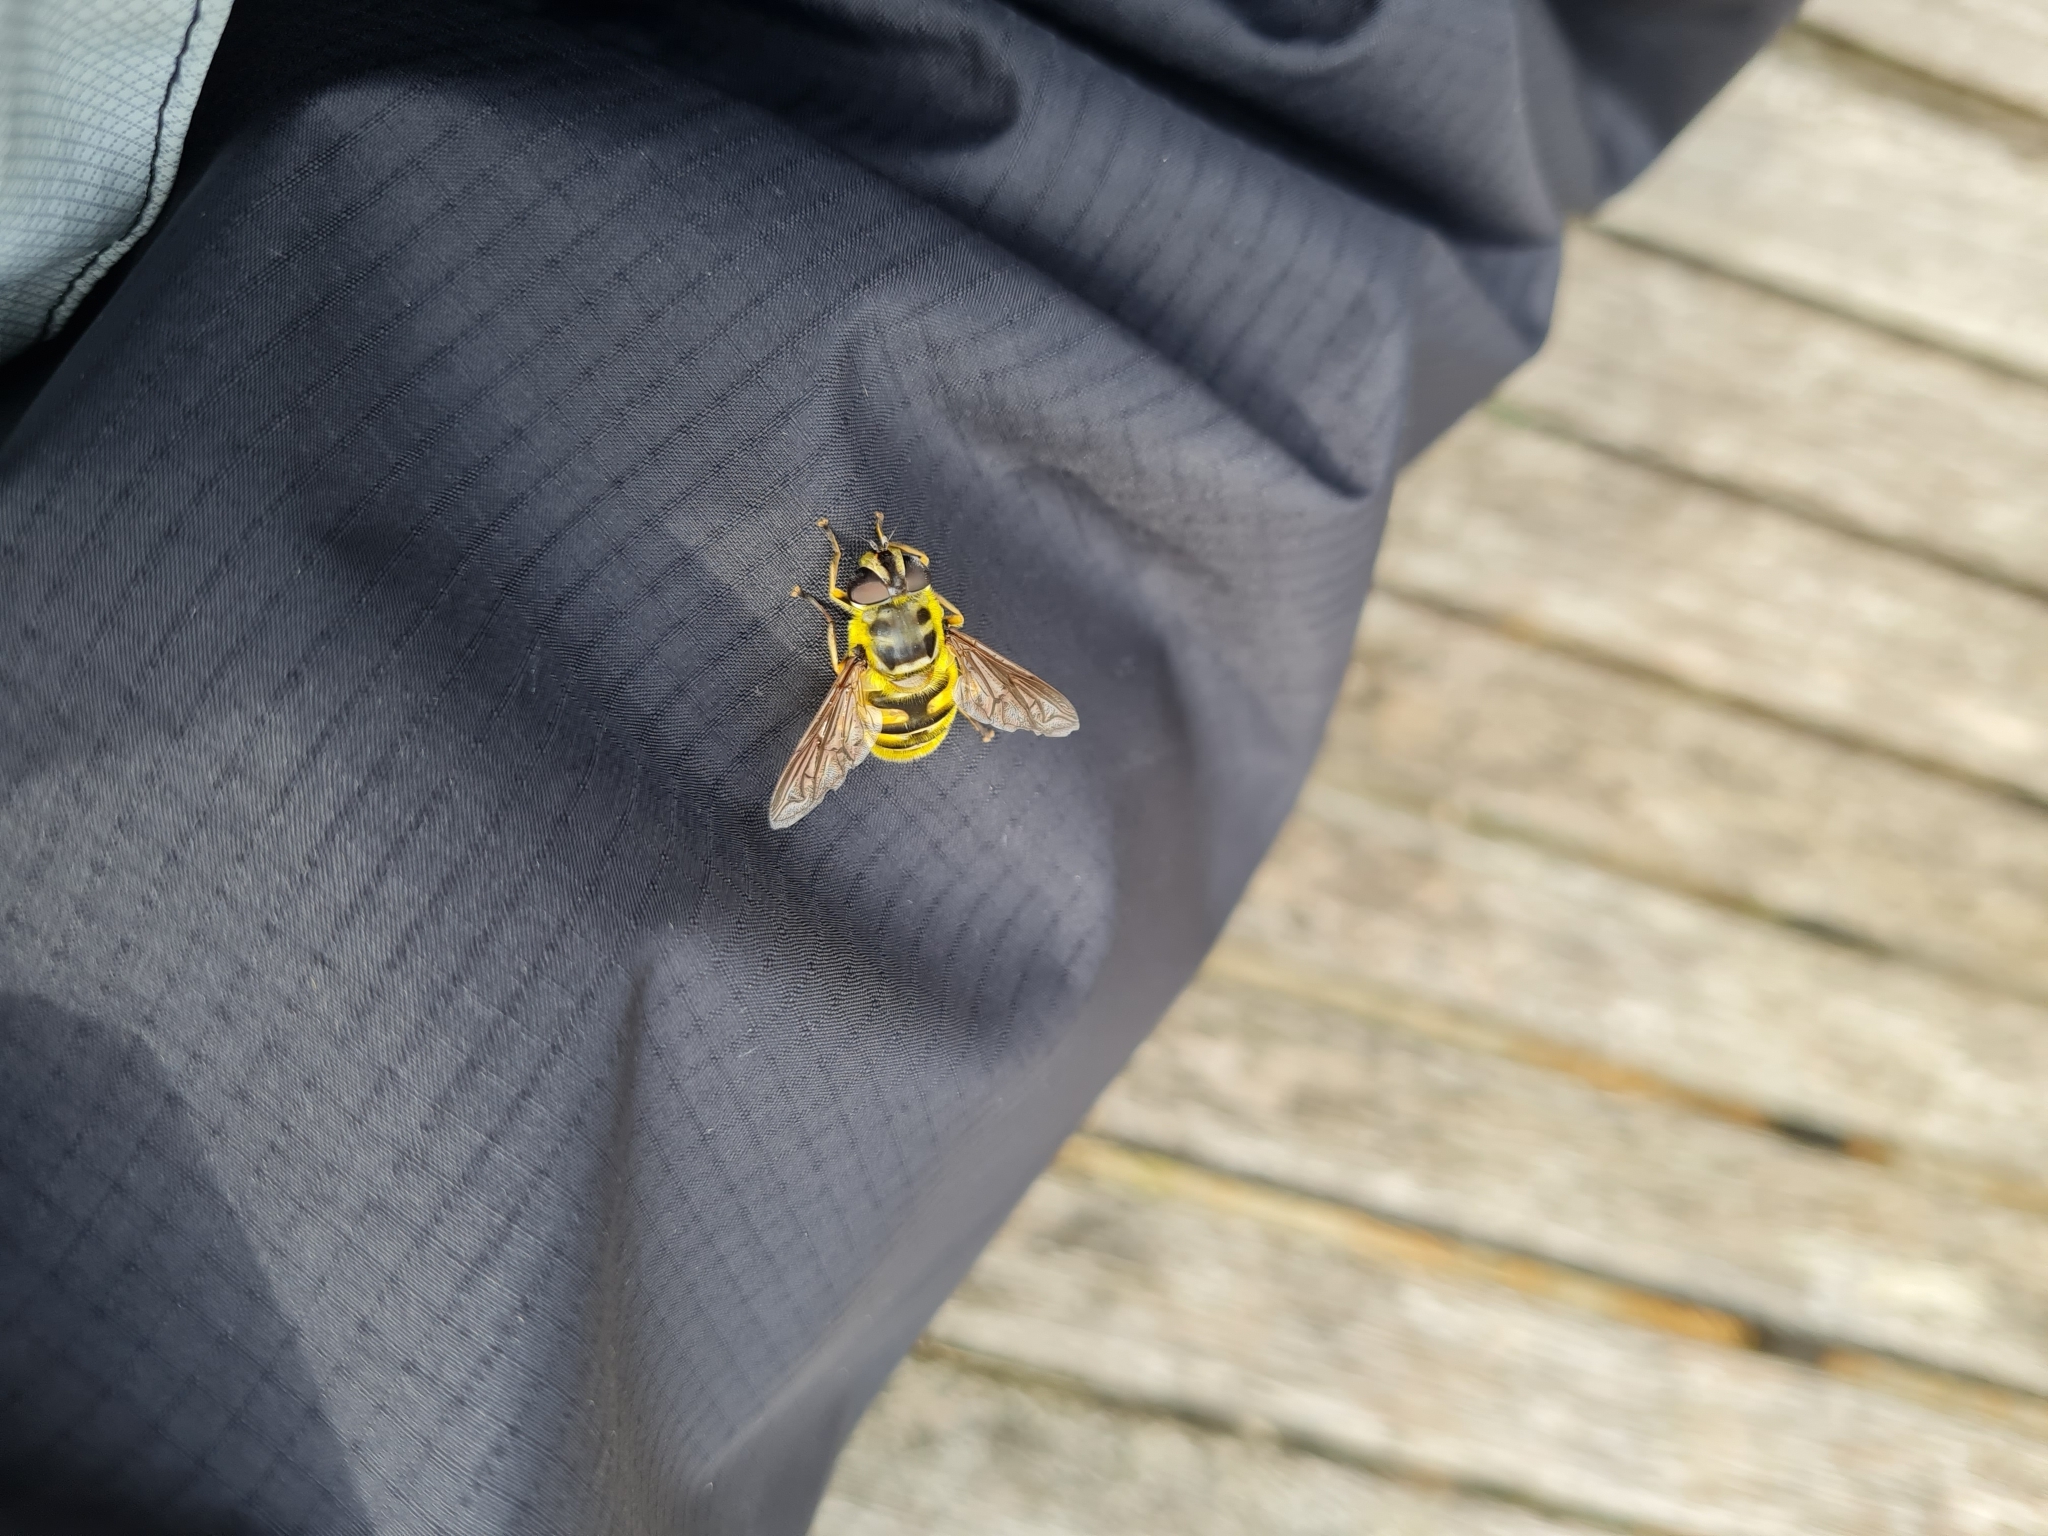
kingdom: Animalia
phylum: Arthropoda
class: Insecta
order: Diptera
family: Syrphidae
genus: Myathropa
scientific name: Myathropa florea
